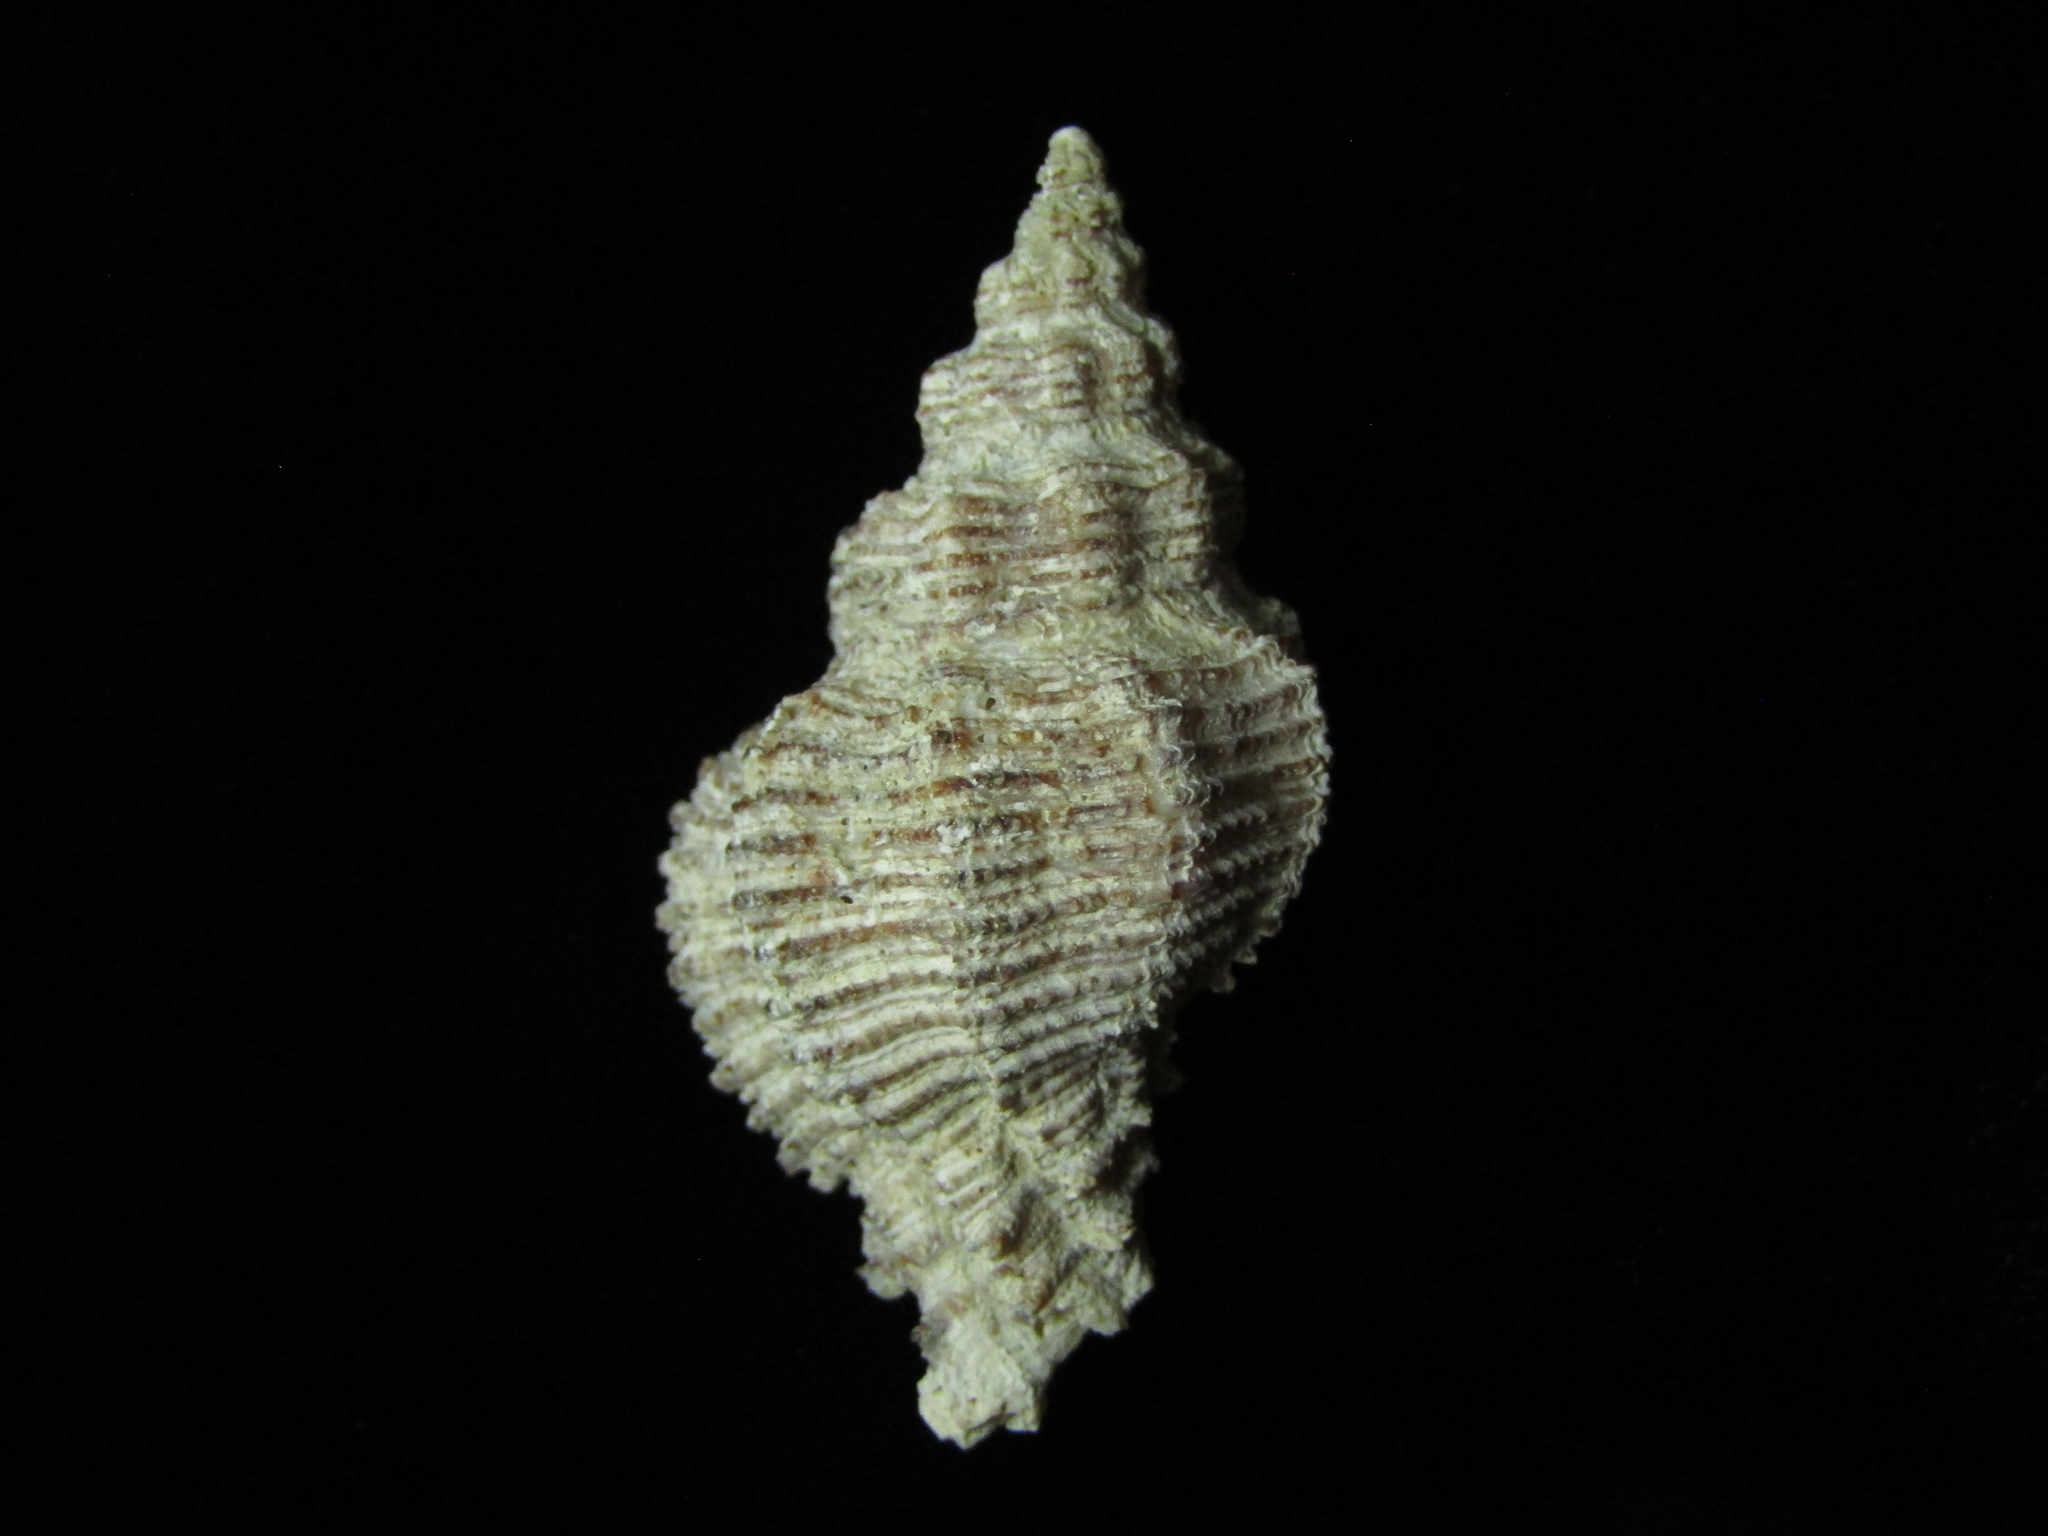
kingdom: Animalia
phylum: Mollusca
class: Gastropoda
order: Neogastropoda
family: Muricidae
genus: Murexsul
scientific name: Murexsul octogonus
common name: Octagon murex
